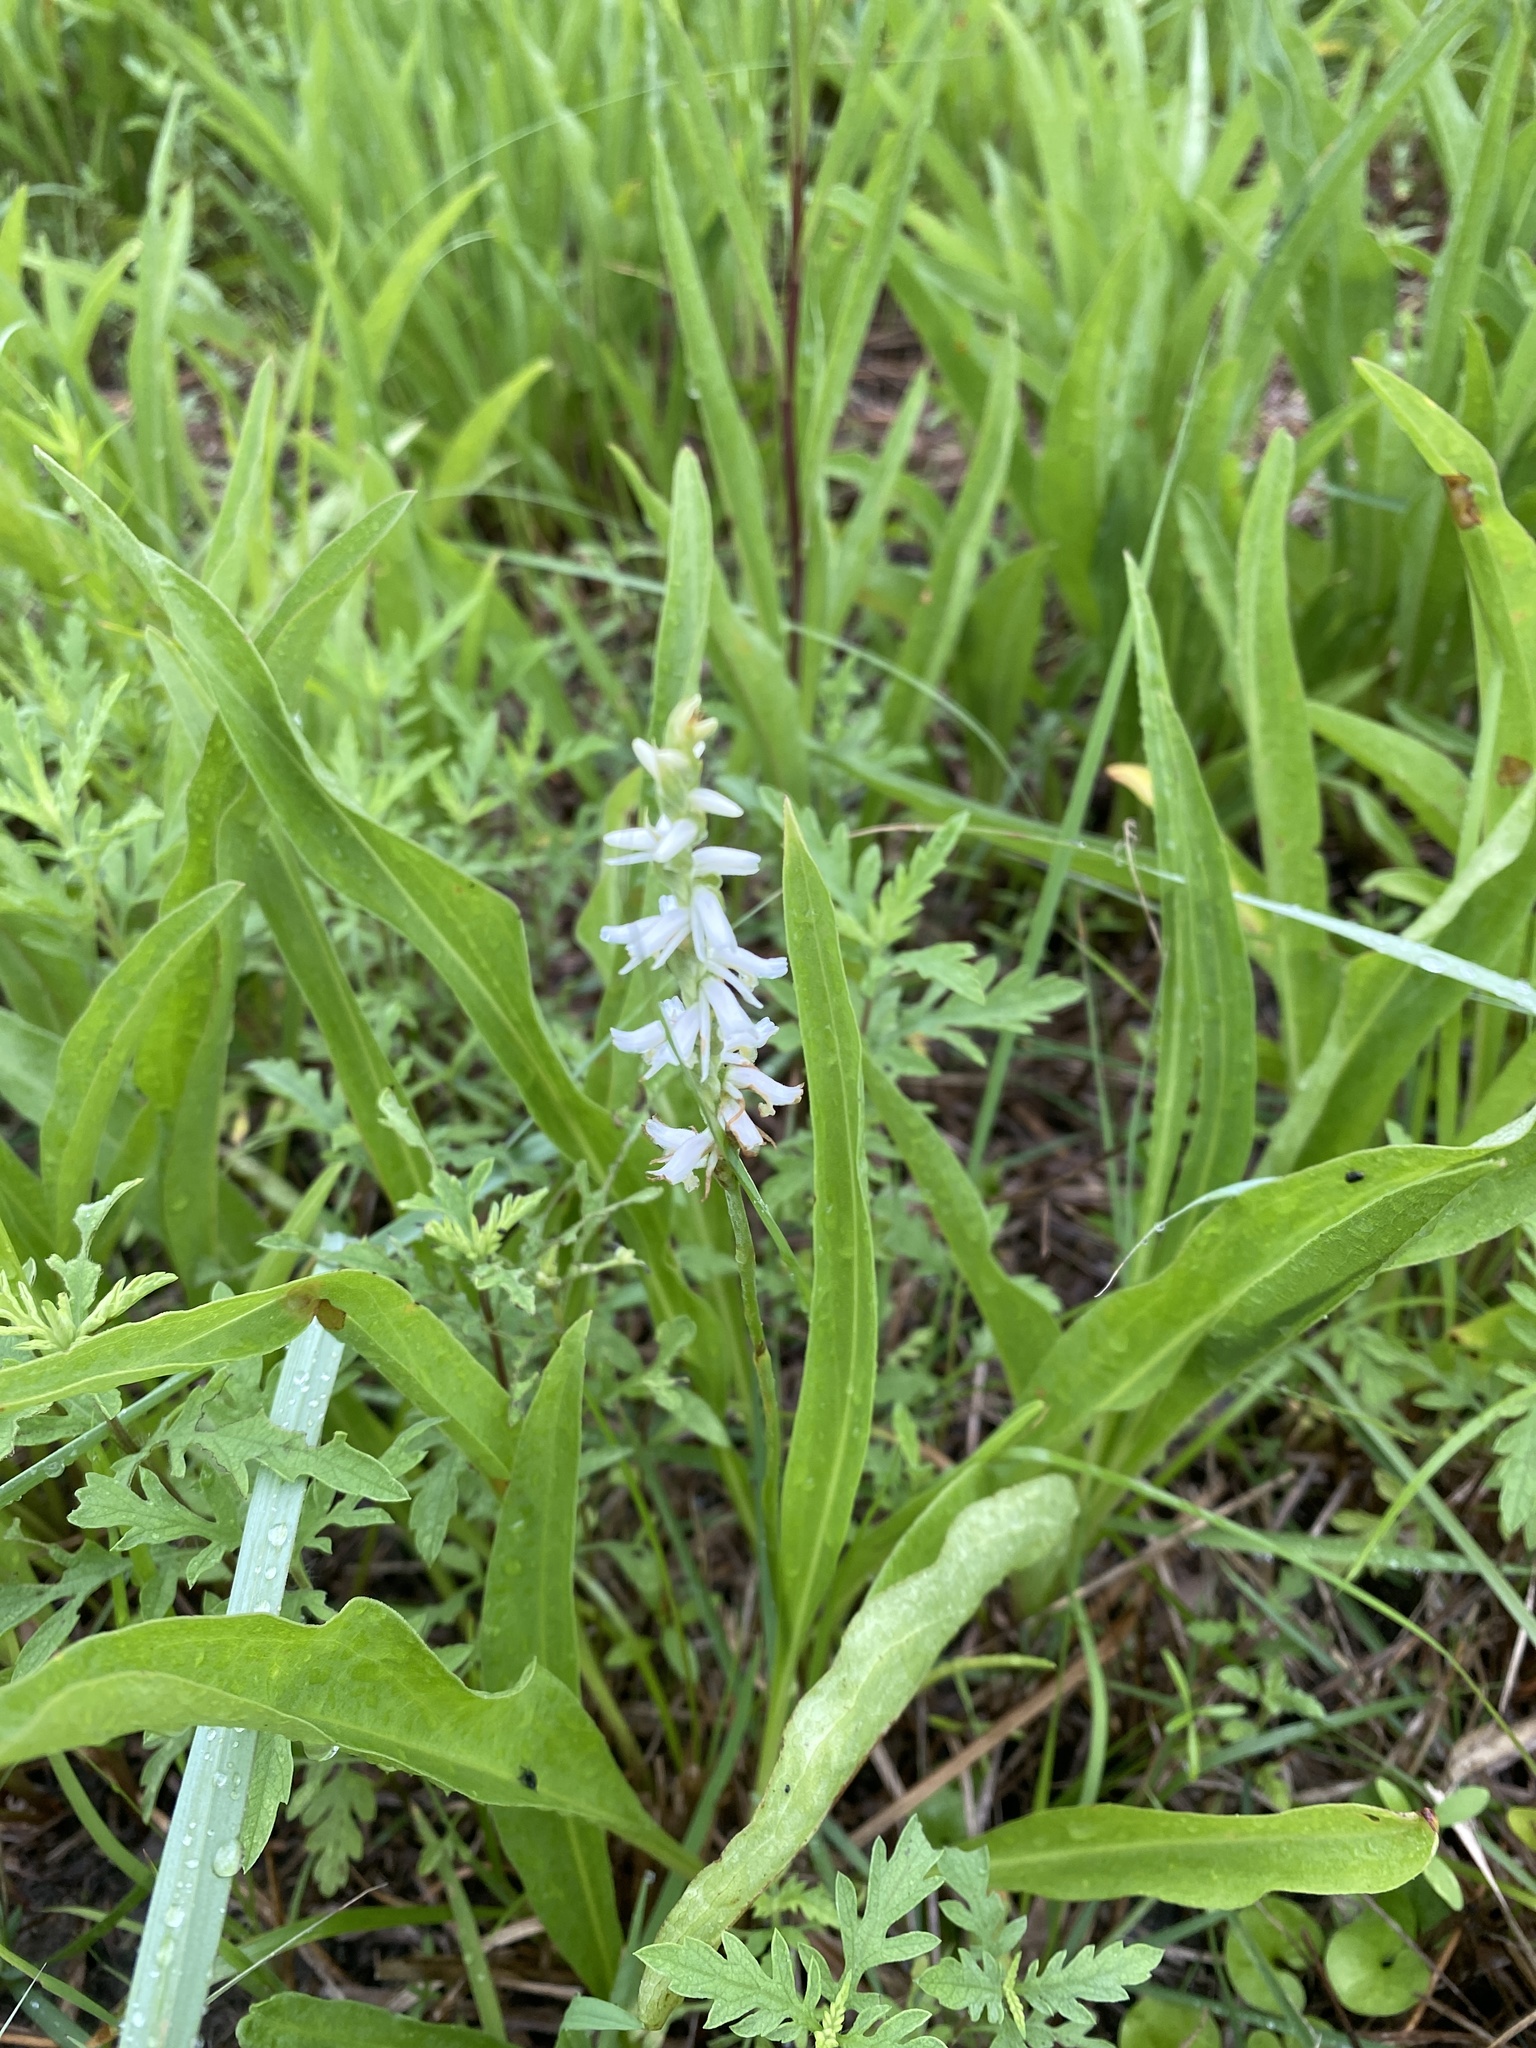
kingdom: Plantae
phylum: Tracheophyta
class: Liliopsida
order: Asparagales
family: Orchidaceae
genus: Spiranthes
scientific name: Spiranthes vernalis
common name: Spring ladies'-tresses
